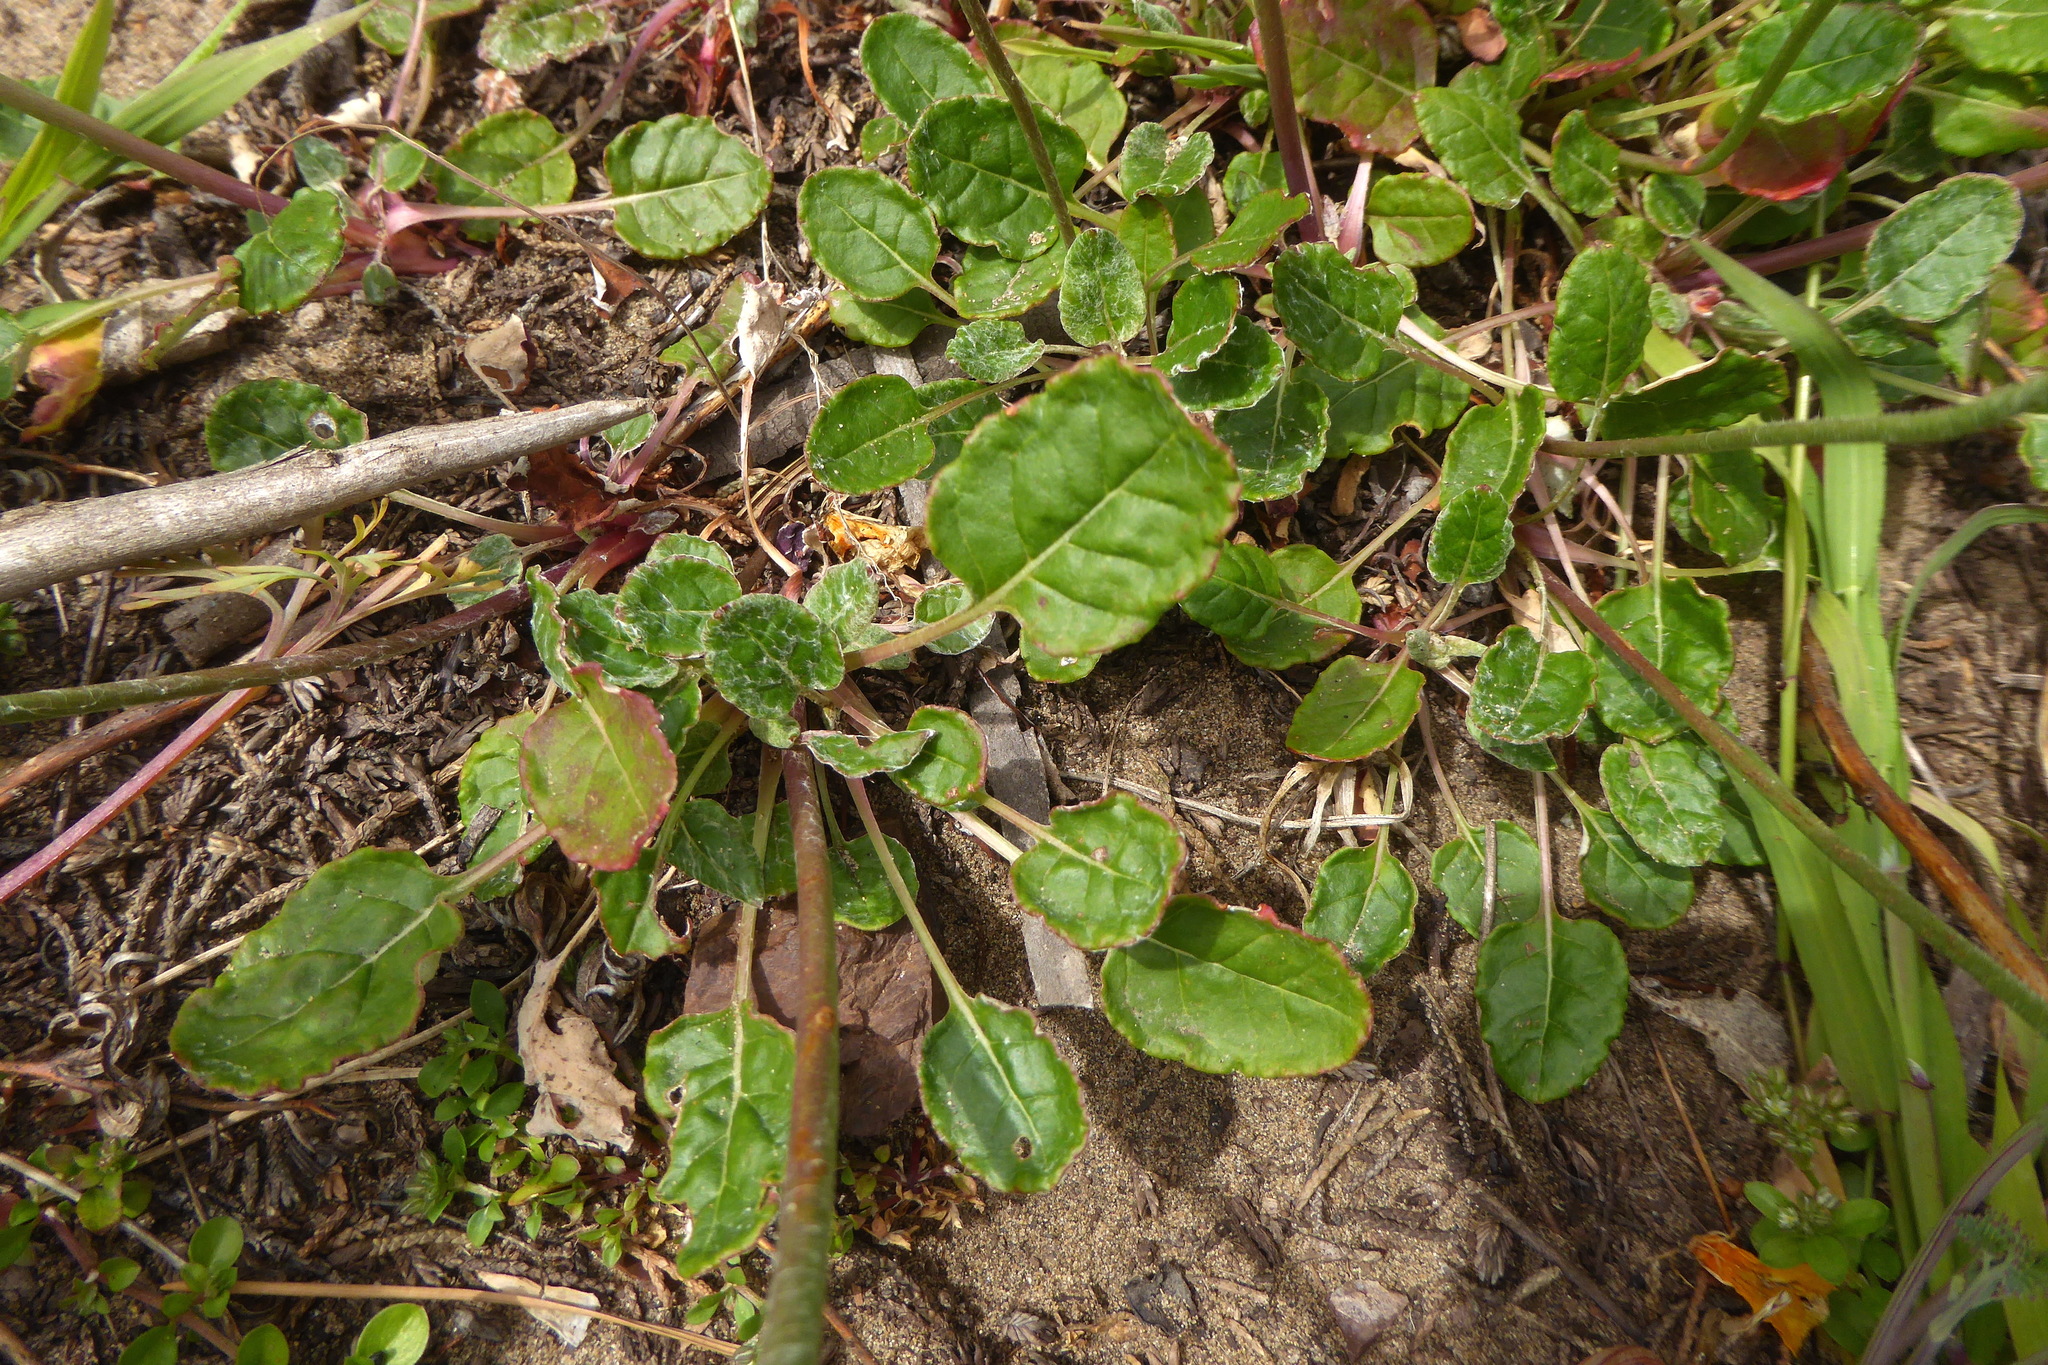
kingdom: Plantae
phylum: Tracheophyta
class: Magnoliopsida
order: Caryophyllales
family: Polygonaceae
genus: Eriogonum
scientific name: Eriogonum latifolium
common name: Seaside wild buckwheat
